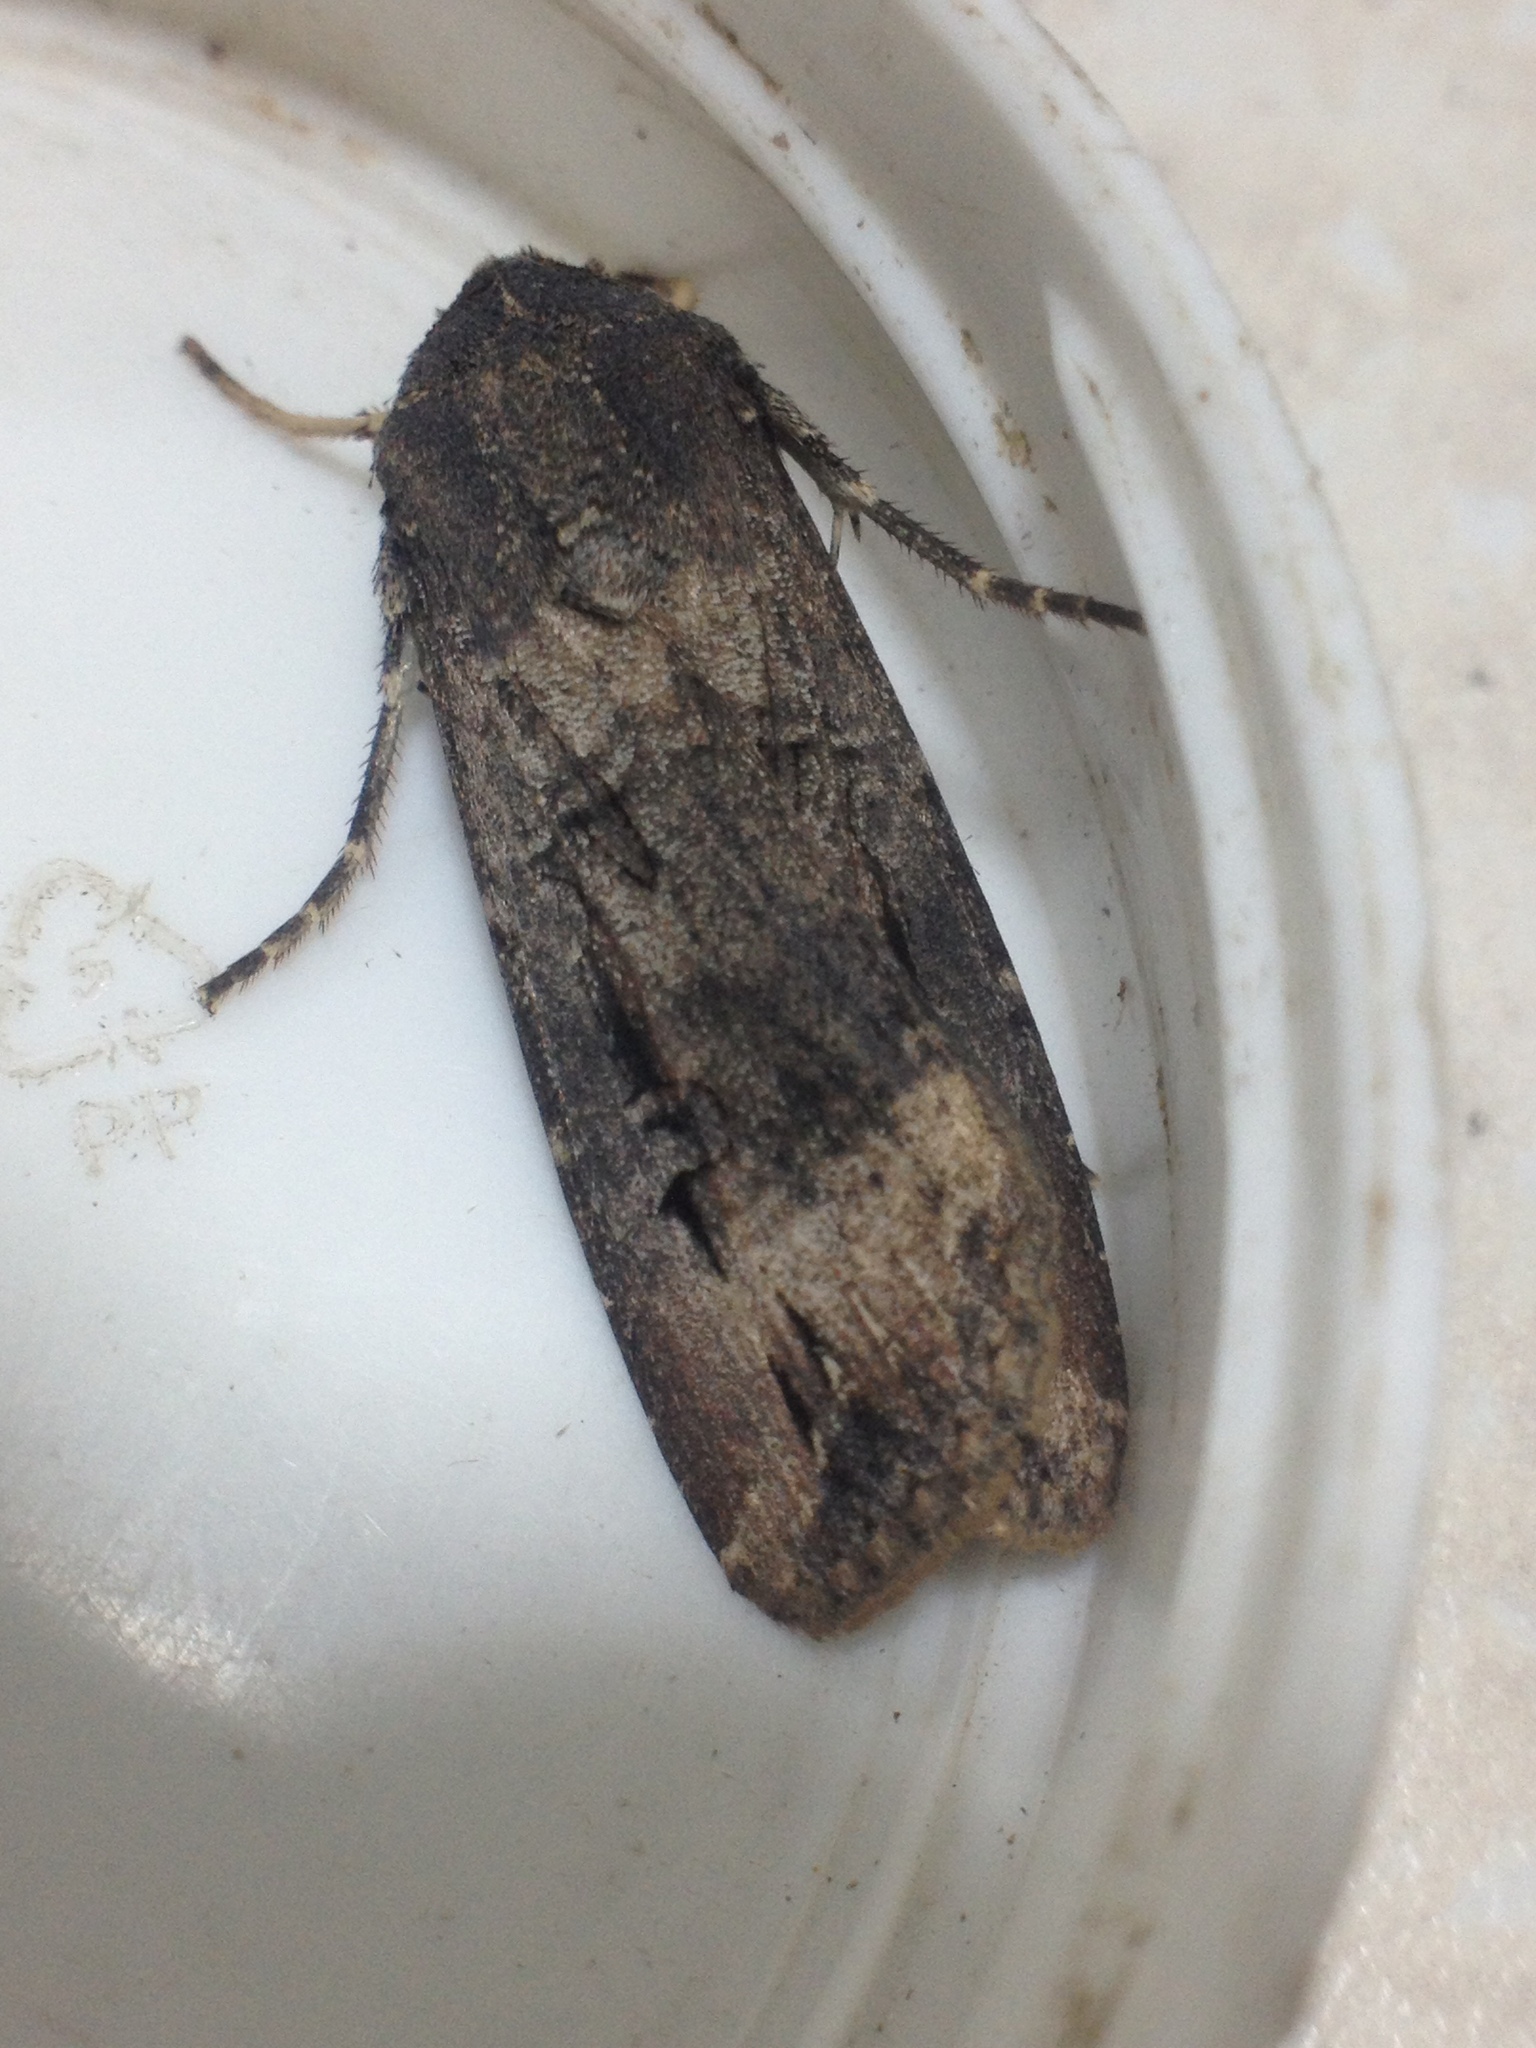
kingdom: Animalia
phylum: Arthropoda
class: Insecta
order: Lepidoptera
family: Noctuidae
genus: Agrotis
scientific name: Agrotis ipsilon
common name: Dark sword-grass
